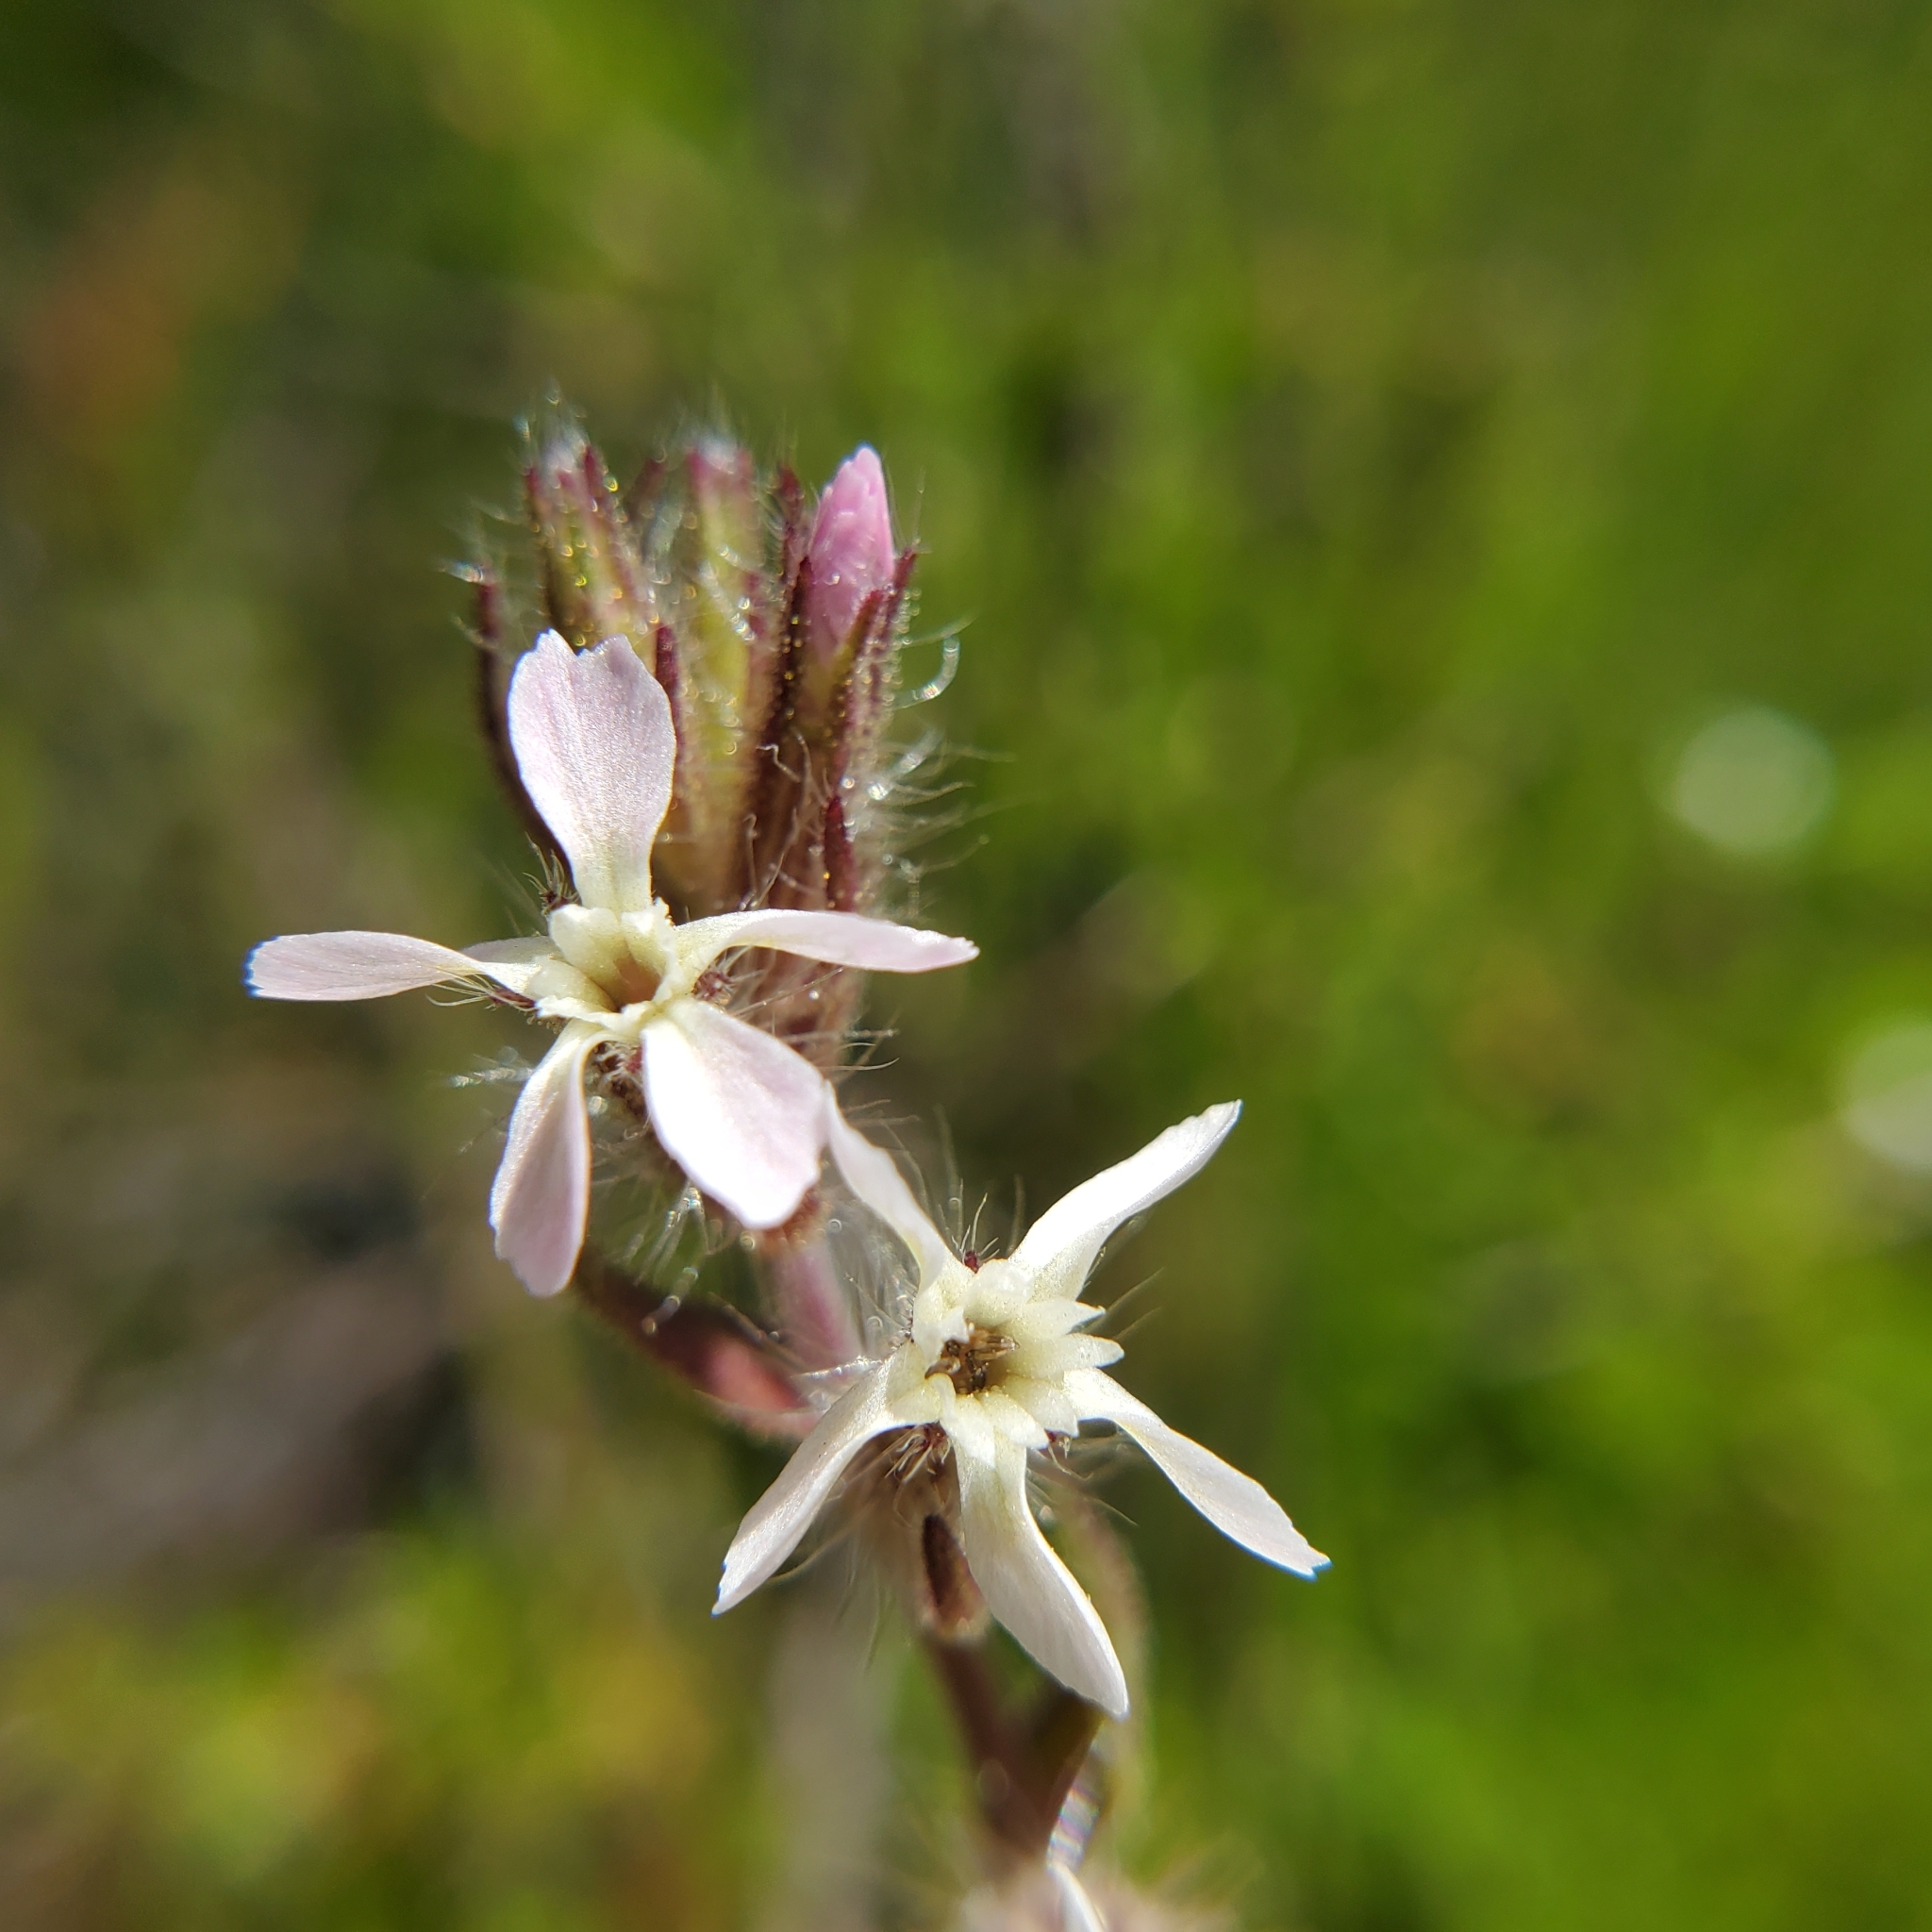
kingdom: Plantae
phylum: Tracheophyta
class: Magnoliopsida
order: Caryophyllales
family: Caryophyllaceae
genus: Silene
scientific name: Silene gallica
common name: Small-flowered catchfly
